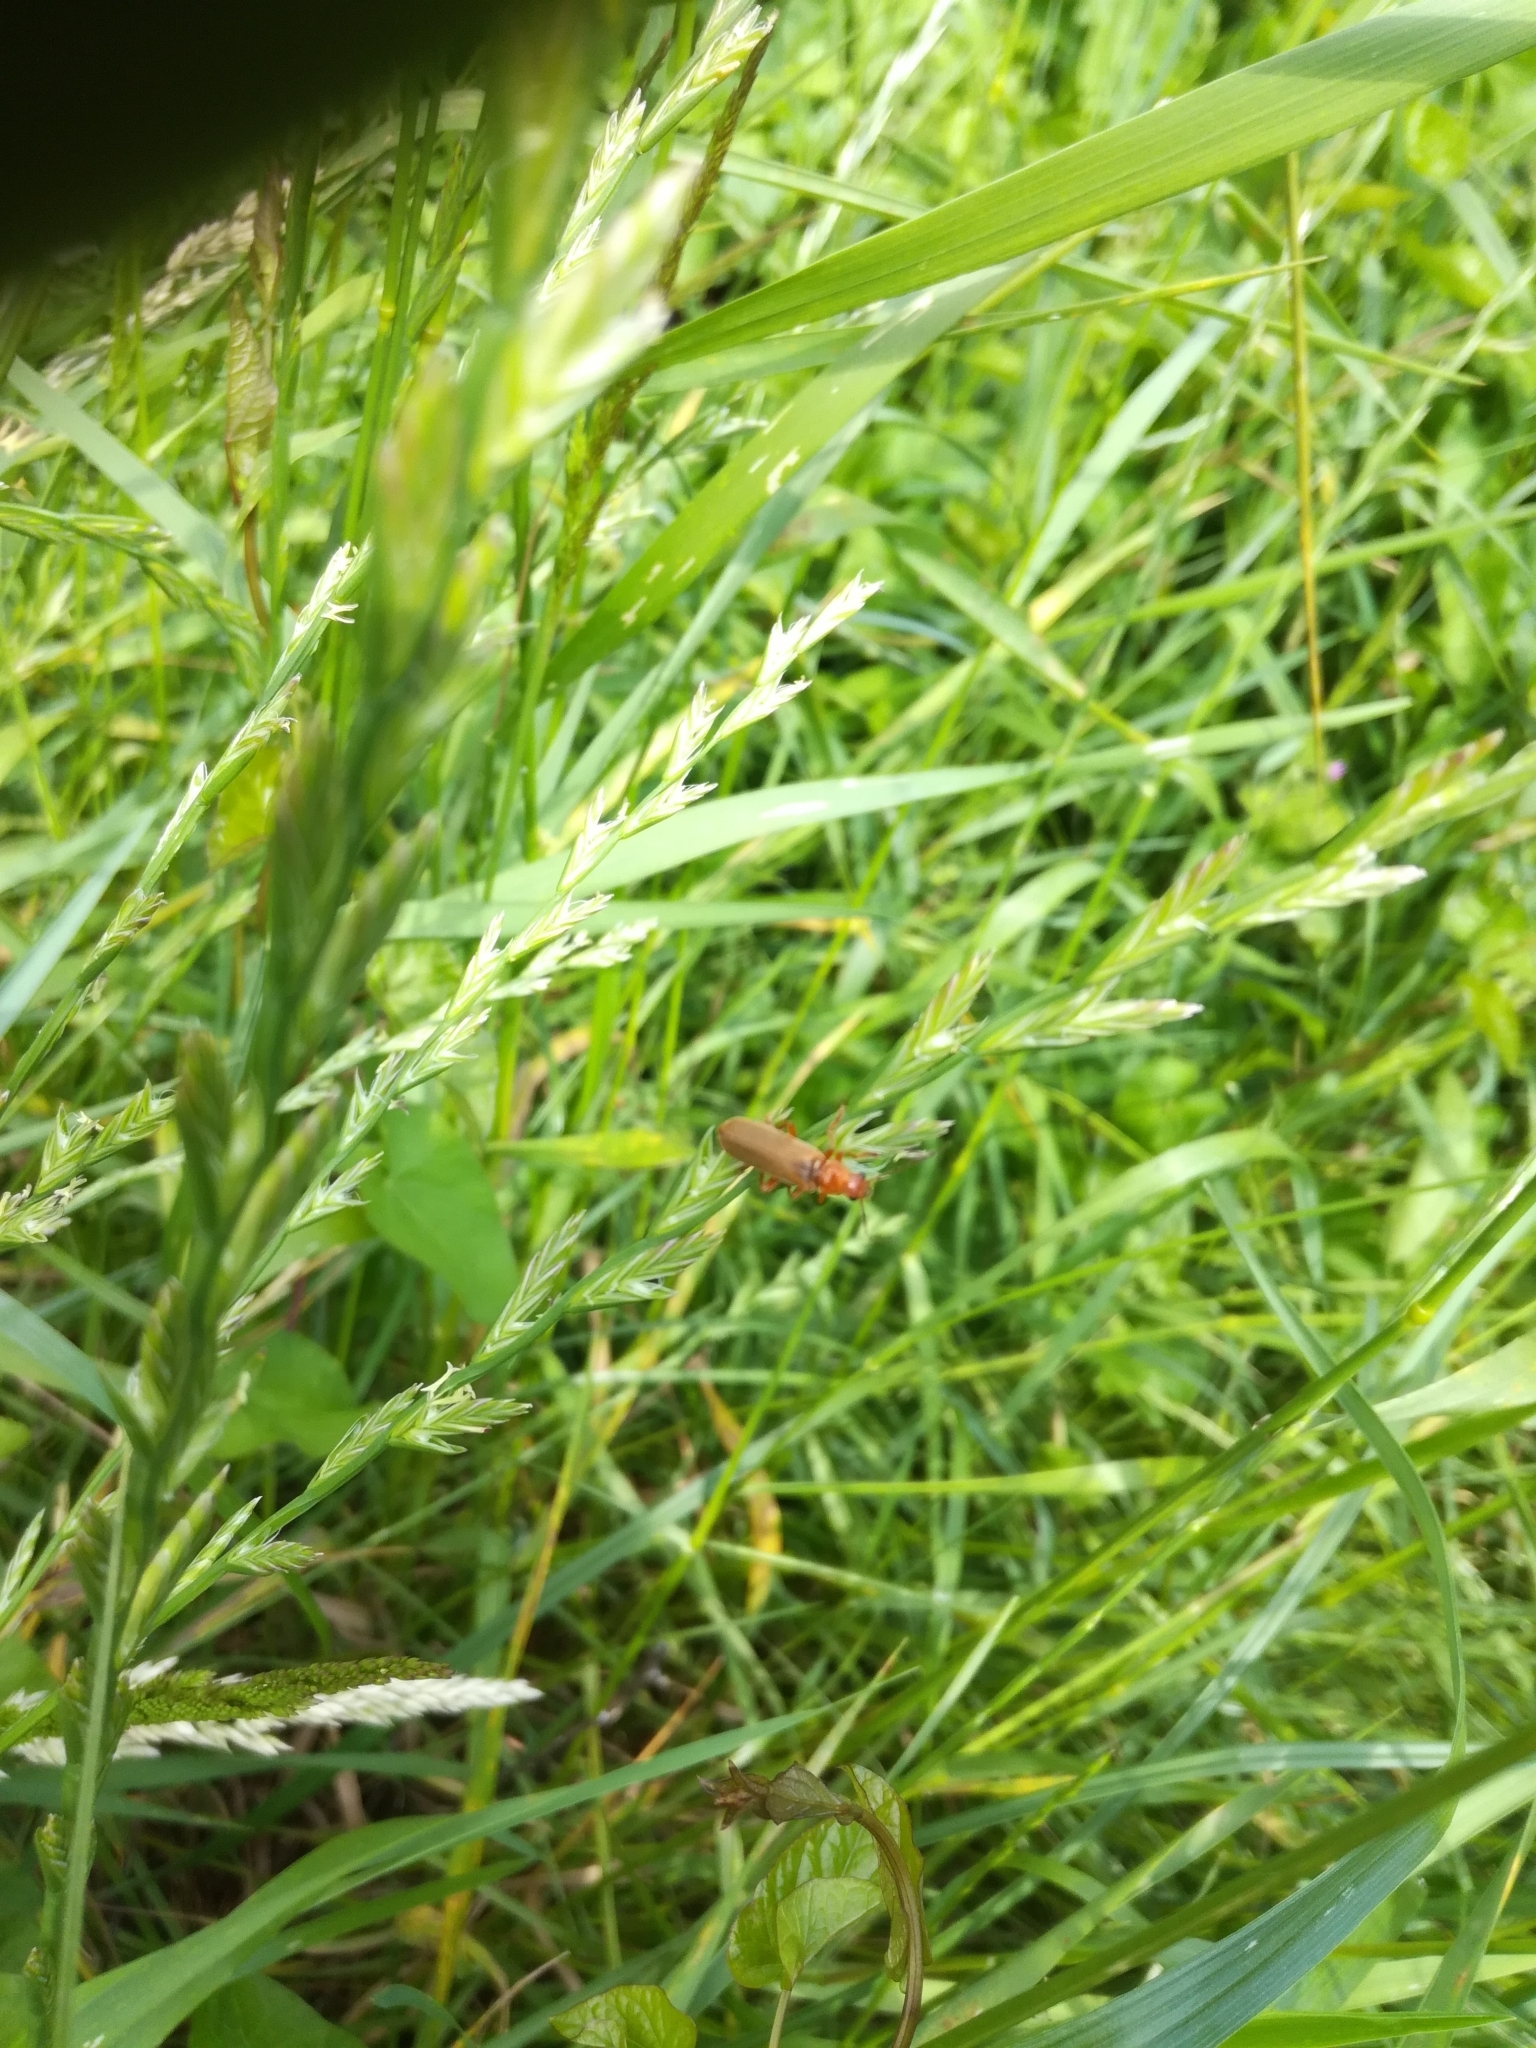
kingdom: Animalia
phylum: Arthropoda
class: Insecta
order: Coleoptera
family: Cantharidae
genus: Cantharis
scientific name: Cantharis rufa
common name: Red-spotted soldier beetle
